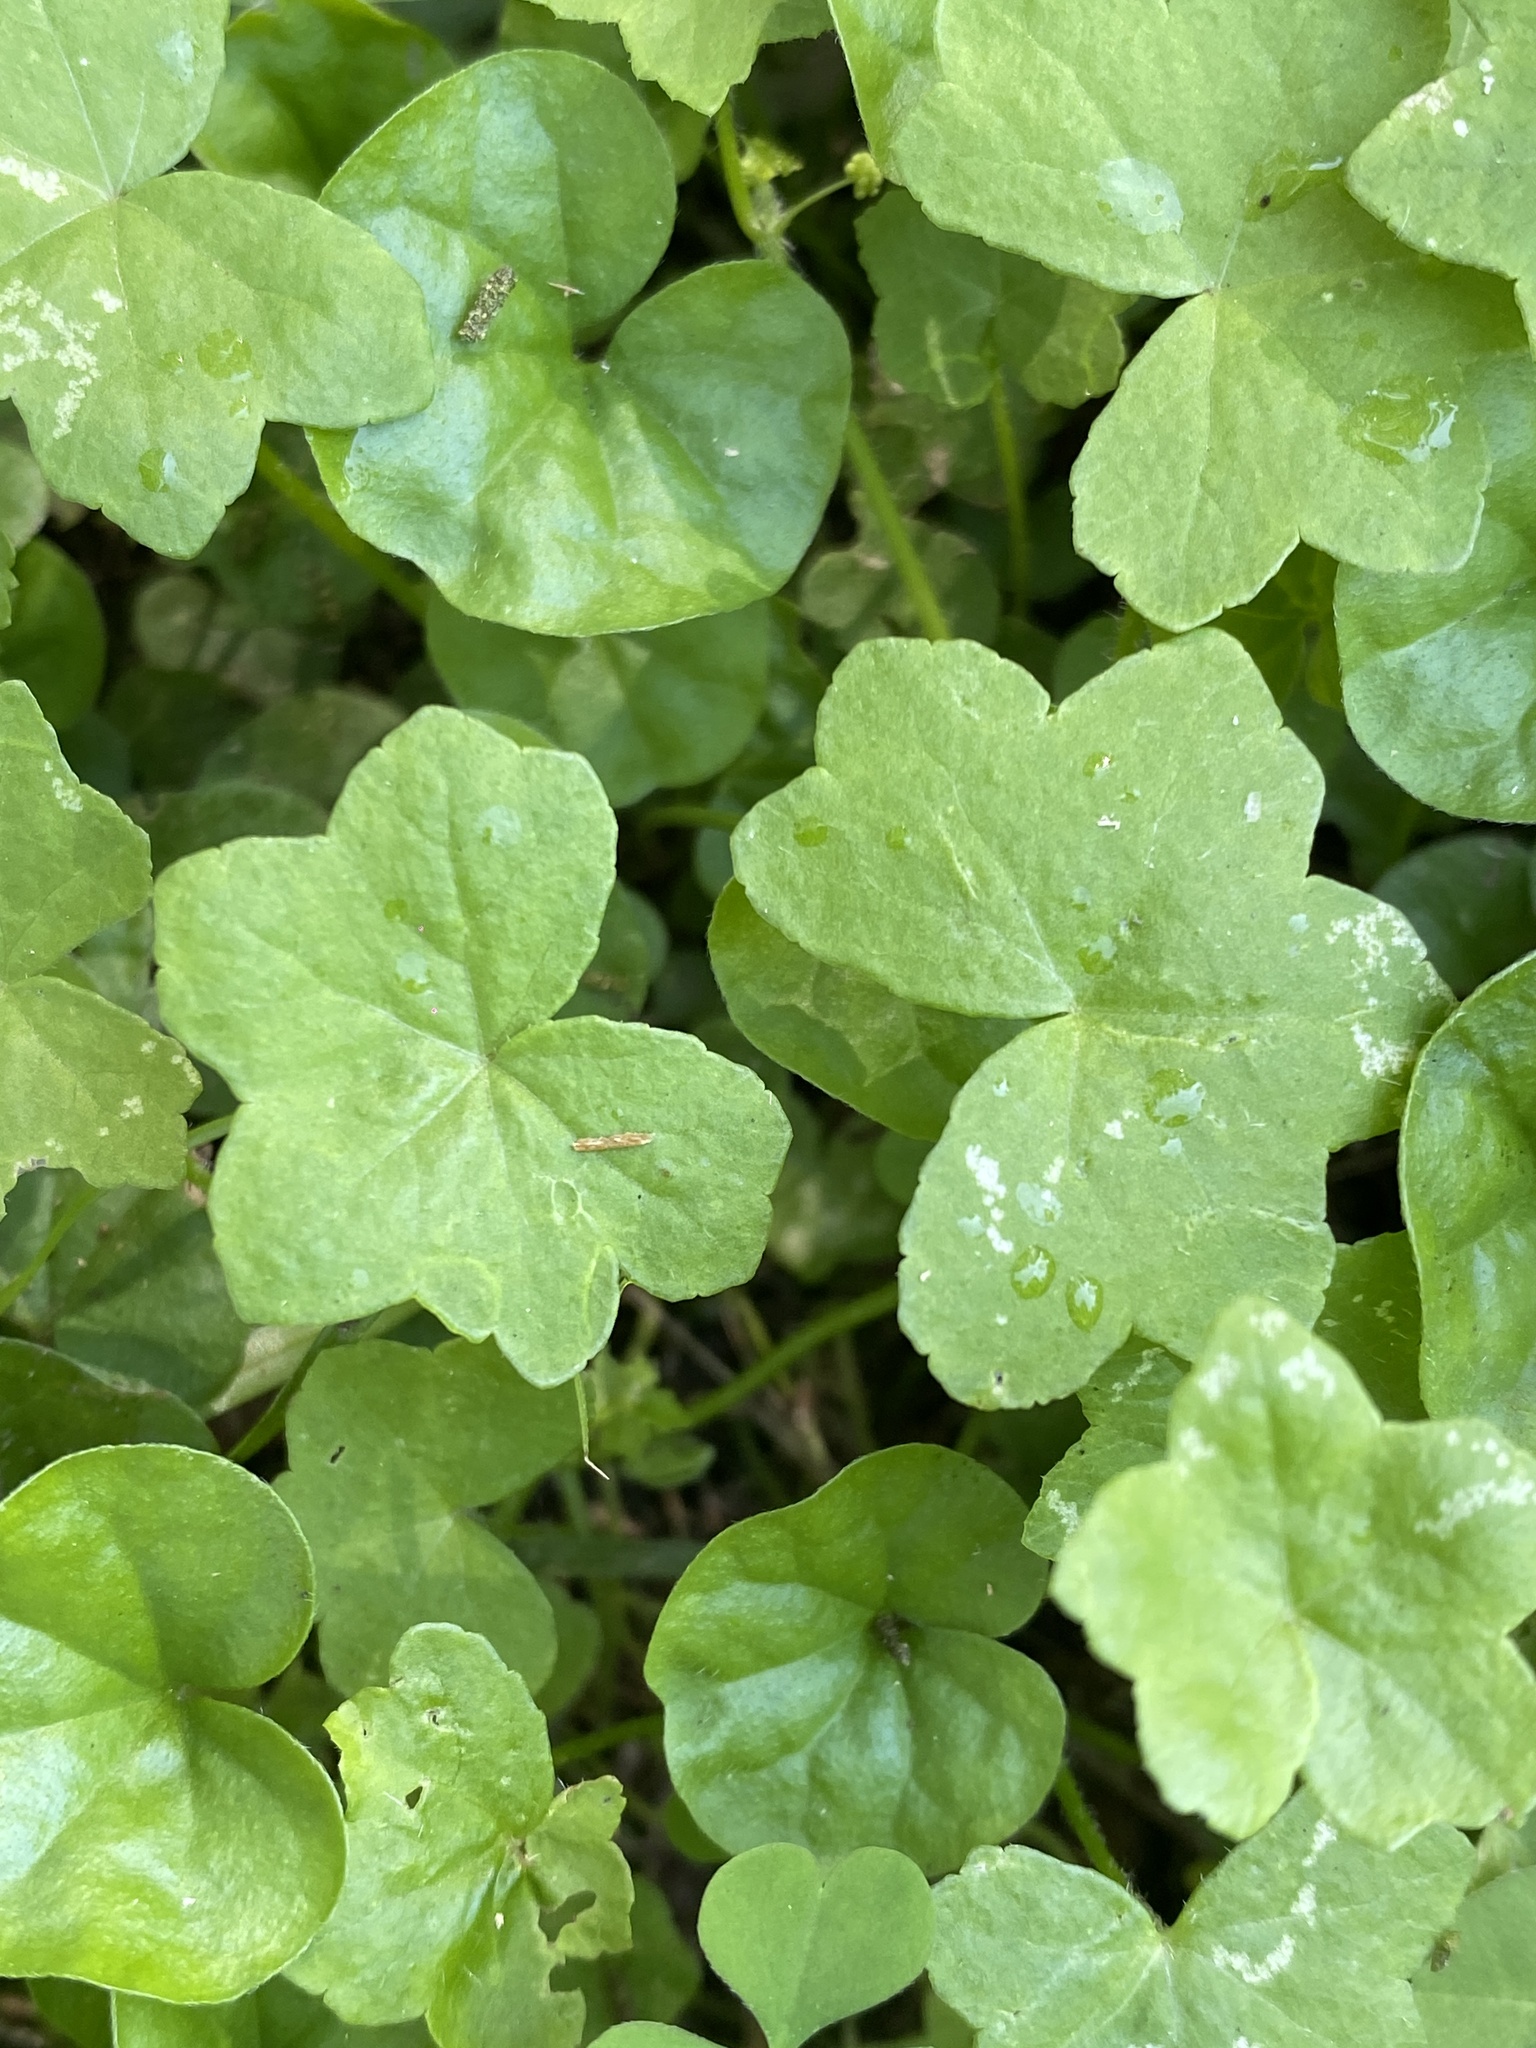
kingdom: Plantae
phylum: Tracheophyta
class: Magnoliopsida
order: Apiales
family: Araliaceae
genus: Hydrocotyle
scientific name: Hydrocotyle acutiloba
